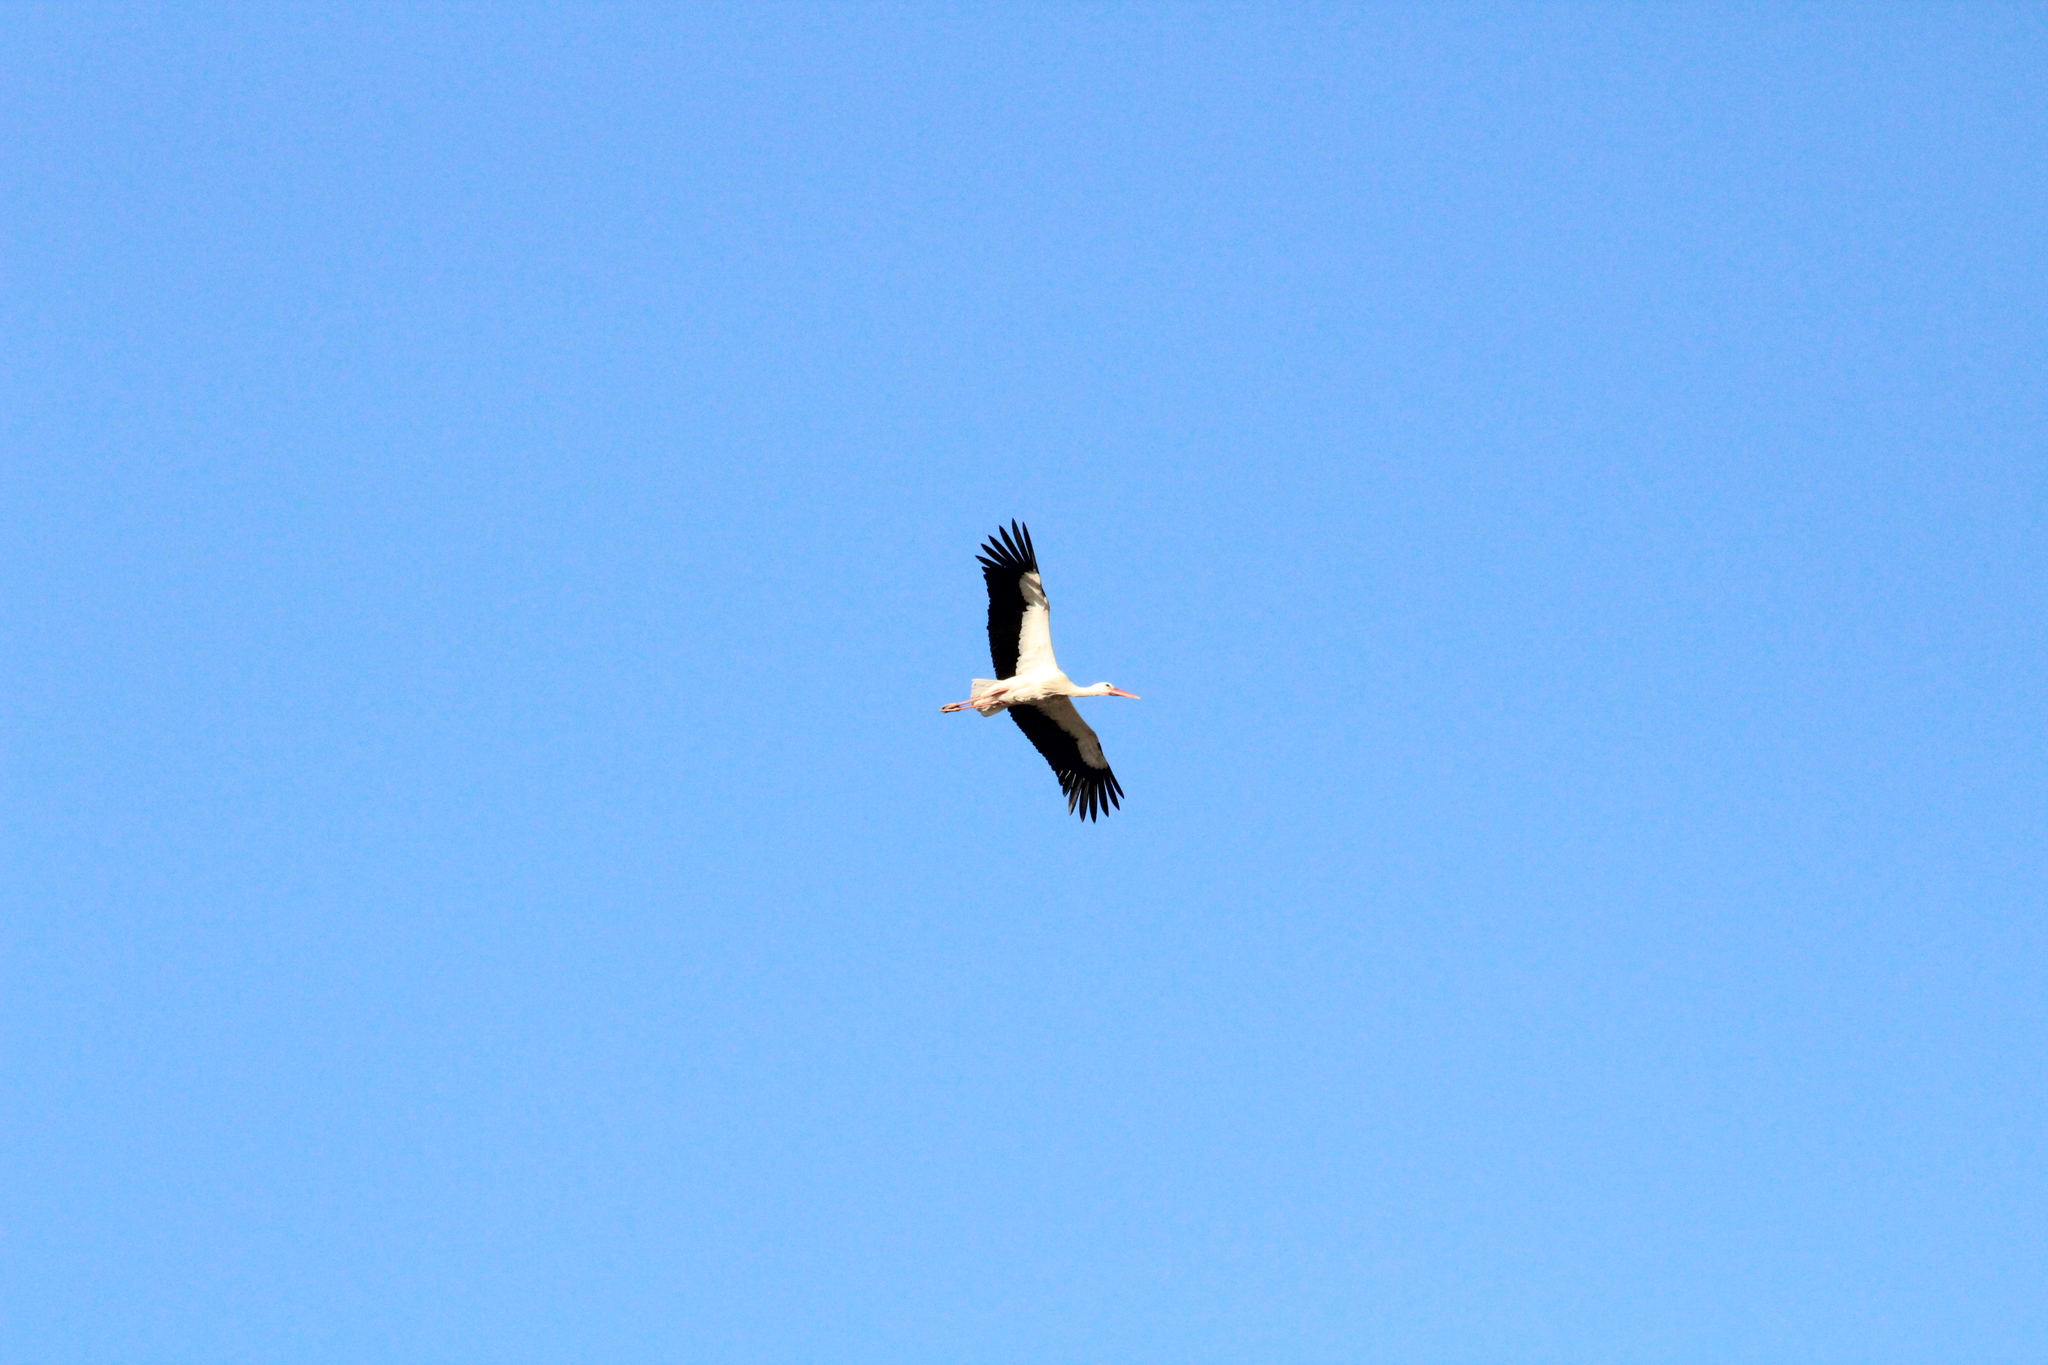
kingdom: Animalia
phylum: Chordata
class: Aves
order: Ciconiiformes
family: Ciconiidae
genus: Ciconia
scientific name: Ciconia ciconia
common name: White stork
